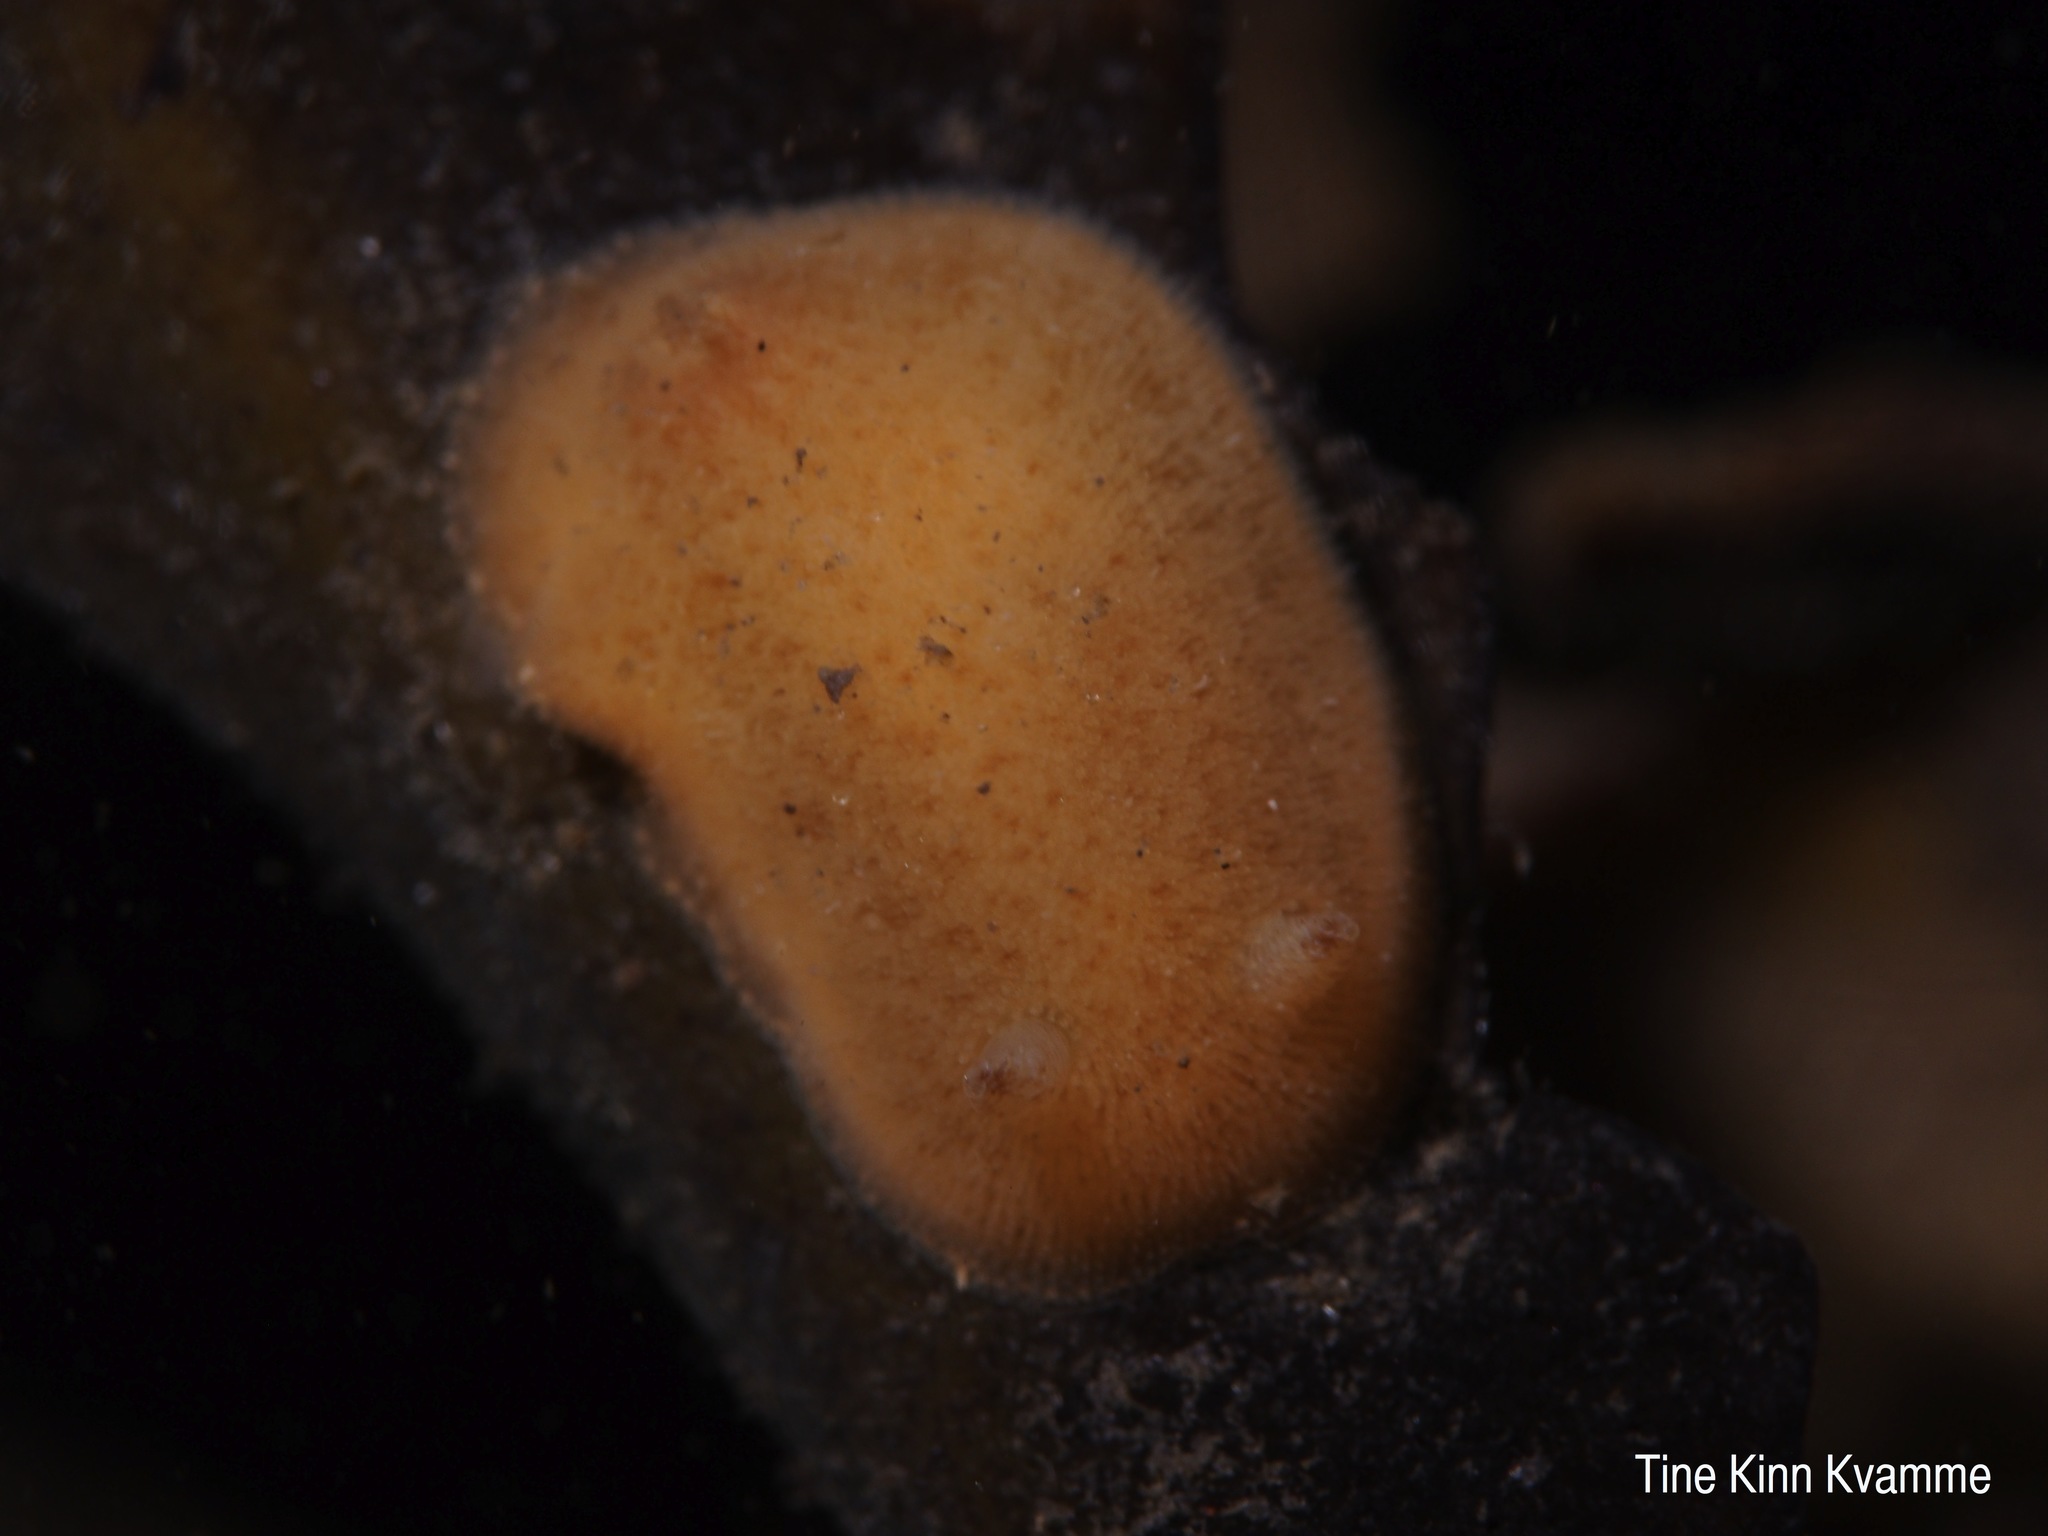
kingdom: Animalia
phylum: Mollusca
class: Gastropoda
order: Nudibranchia
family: Discodorididae
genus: Jorunna
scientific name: Jorunna tomentosa
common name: Grey sea slug
